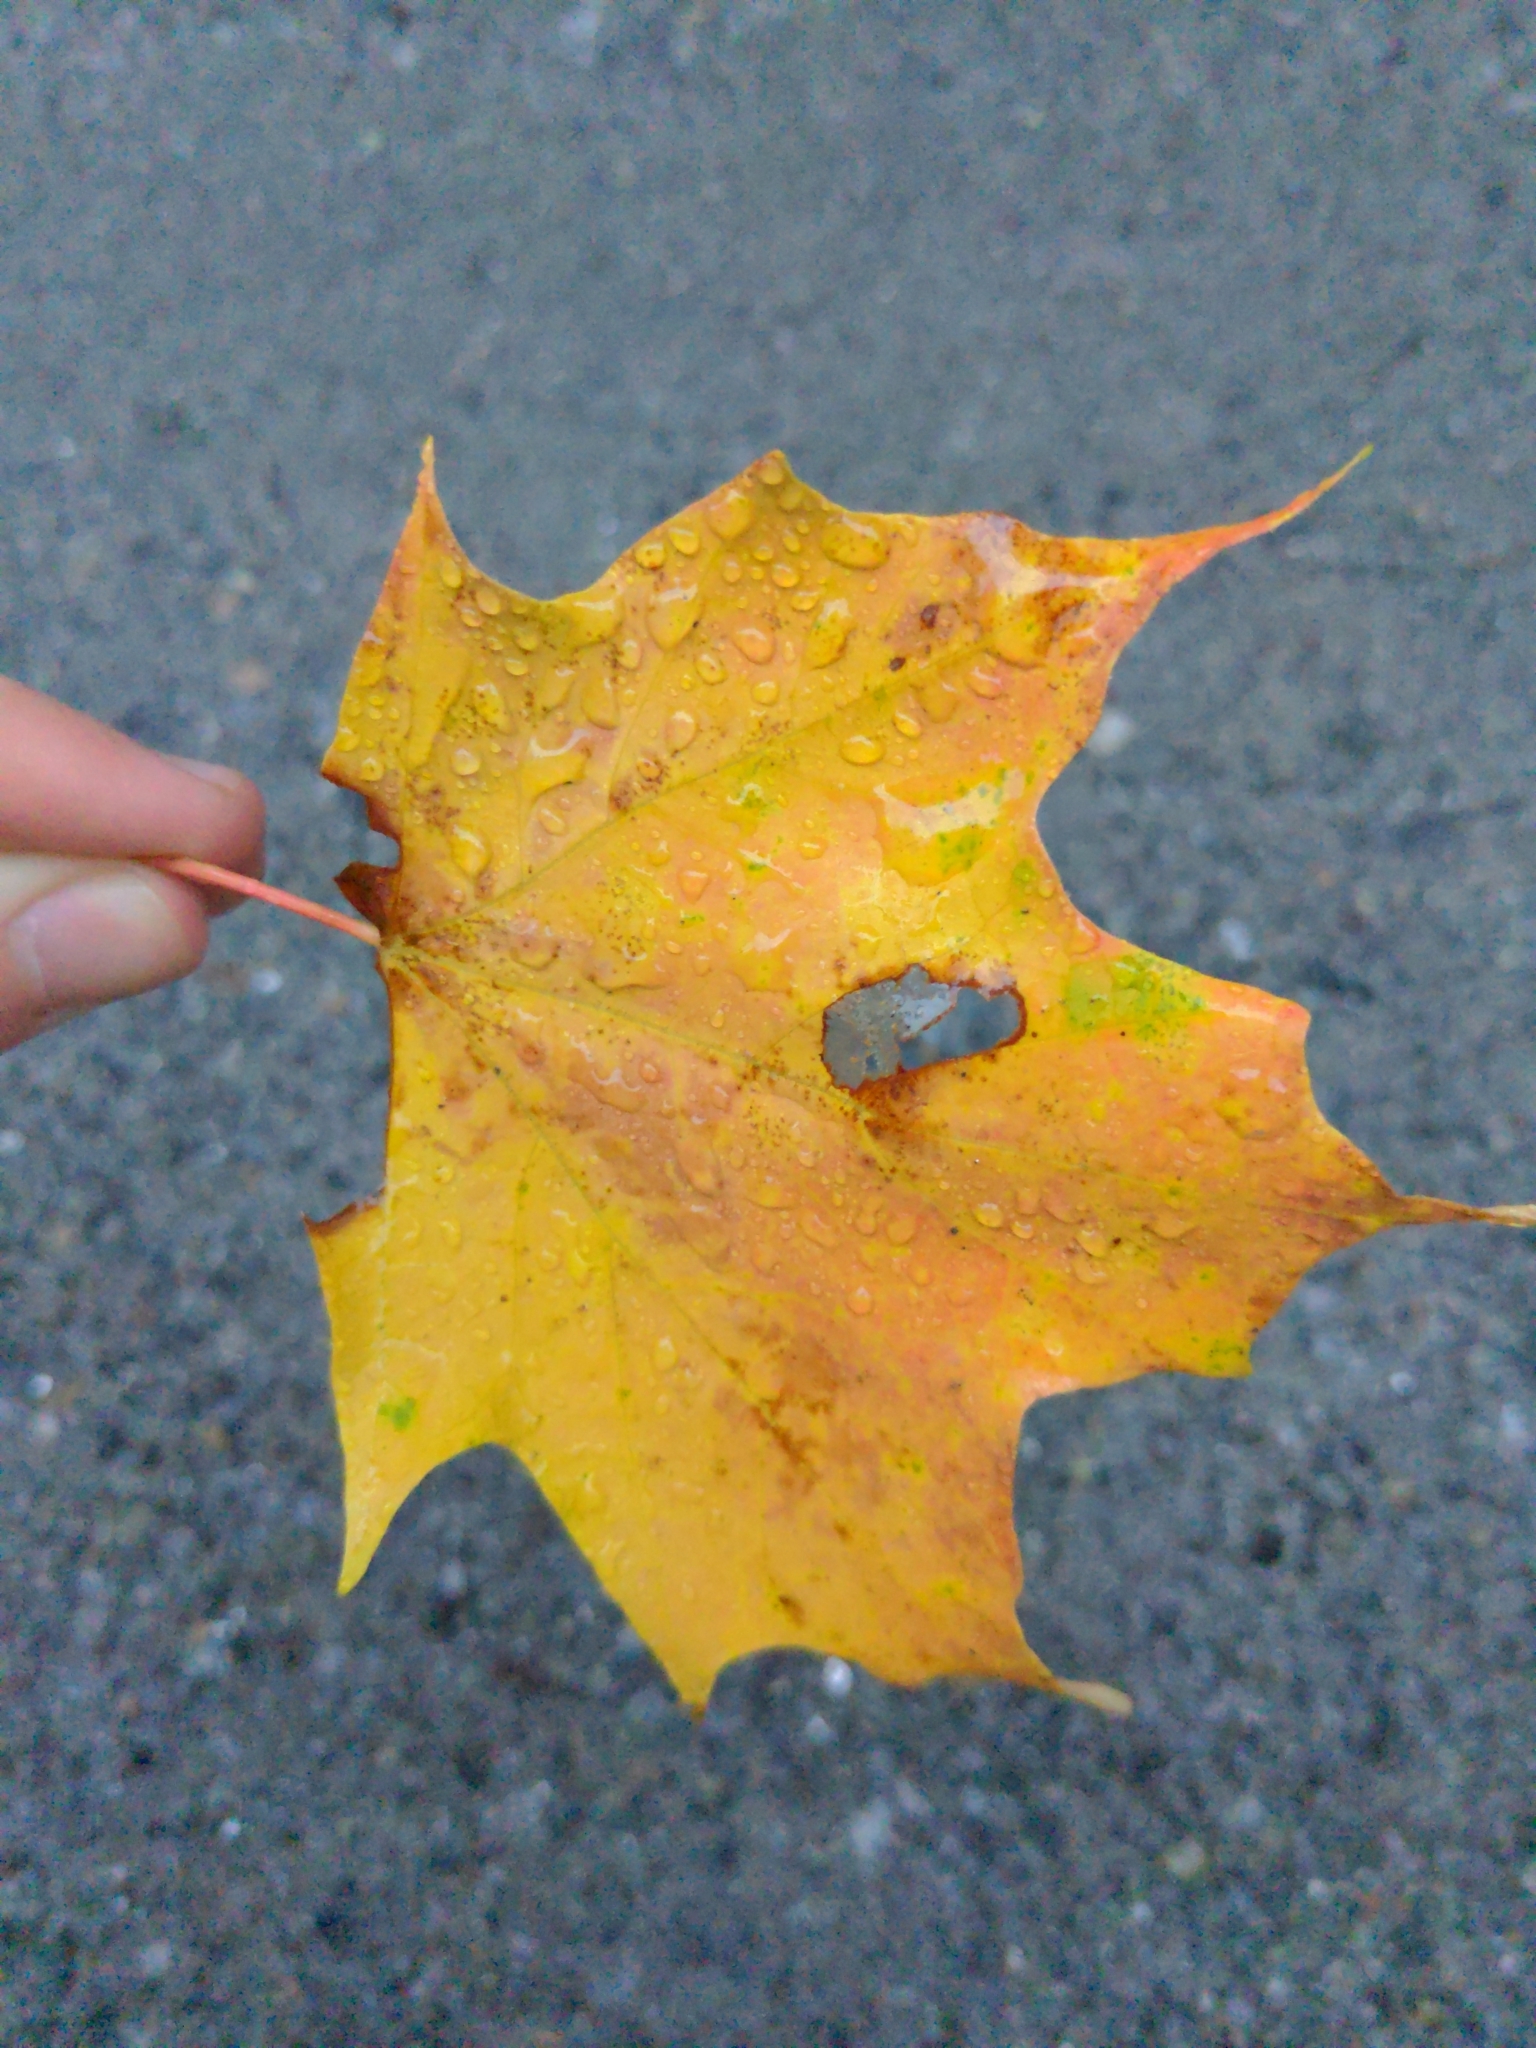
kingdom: Plantae
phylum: Tracheophyta
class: Magnoliopsida
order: Sapindales
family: Sapindaceae
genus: Acer
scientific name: Acer saccharum
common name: Sugar maple
